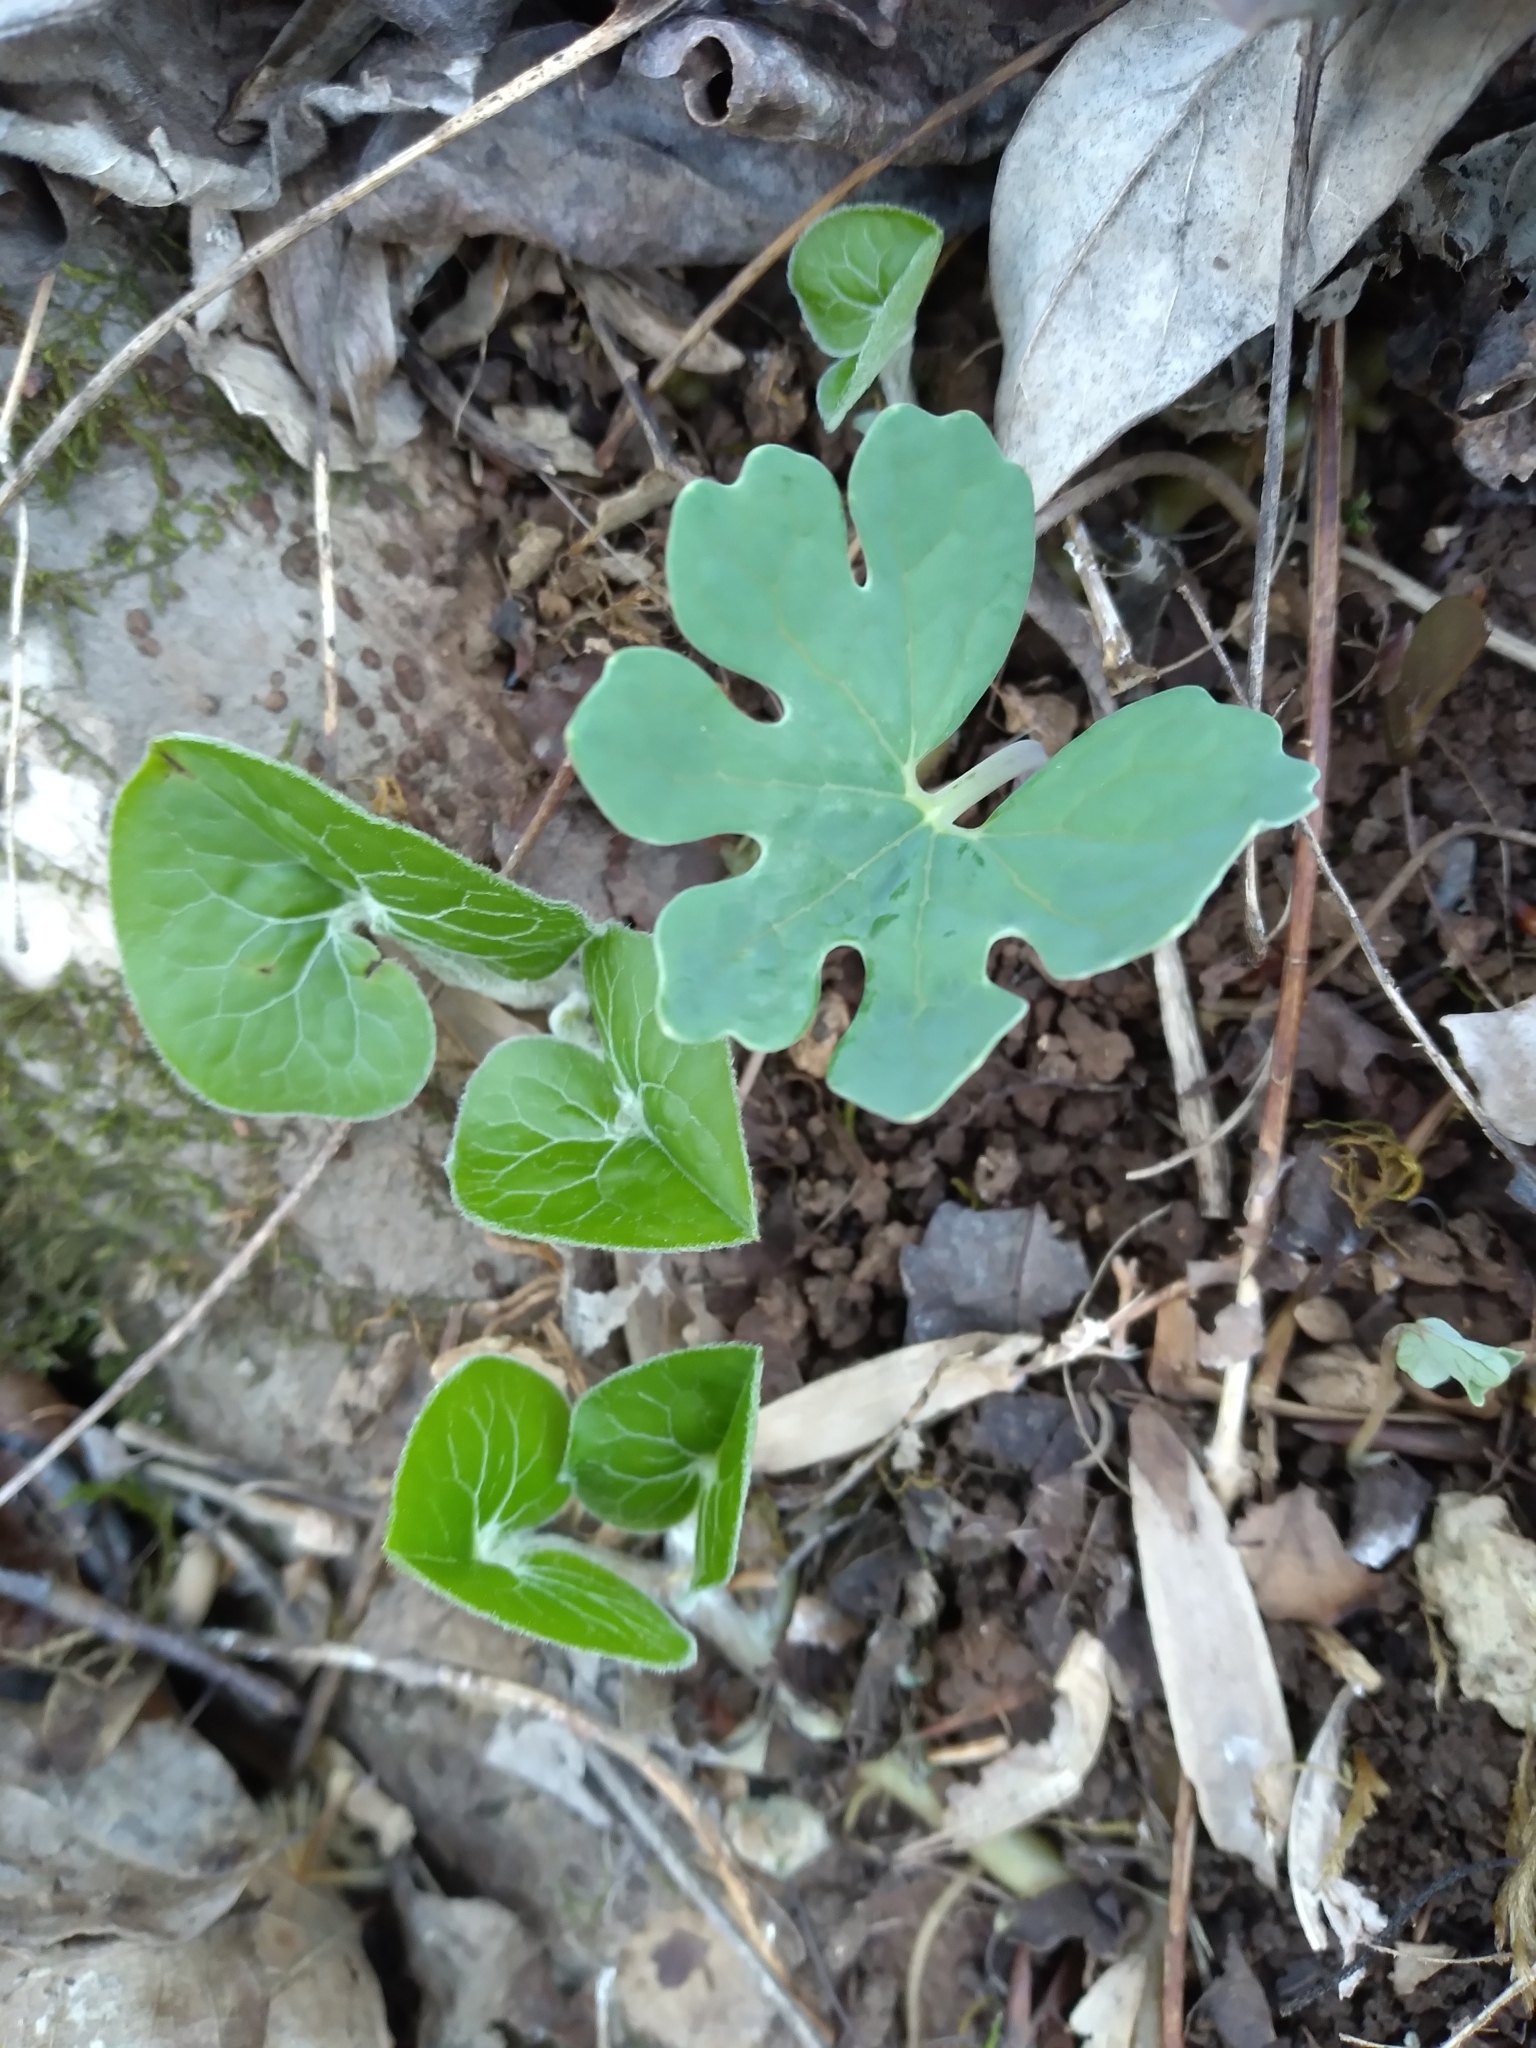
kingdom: Plantae
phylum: Tracheophyta
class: Magnoliopsida
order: Piperales
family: Aristolochiaceae
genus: Asarum
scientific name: Asarum canadense
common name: Wild ginger
